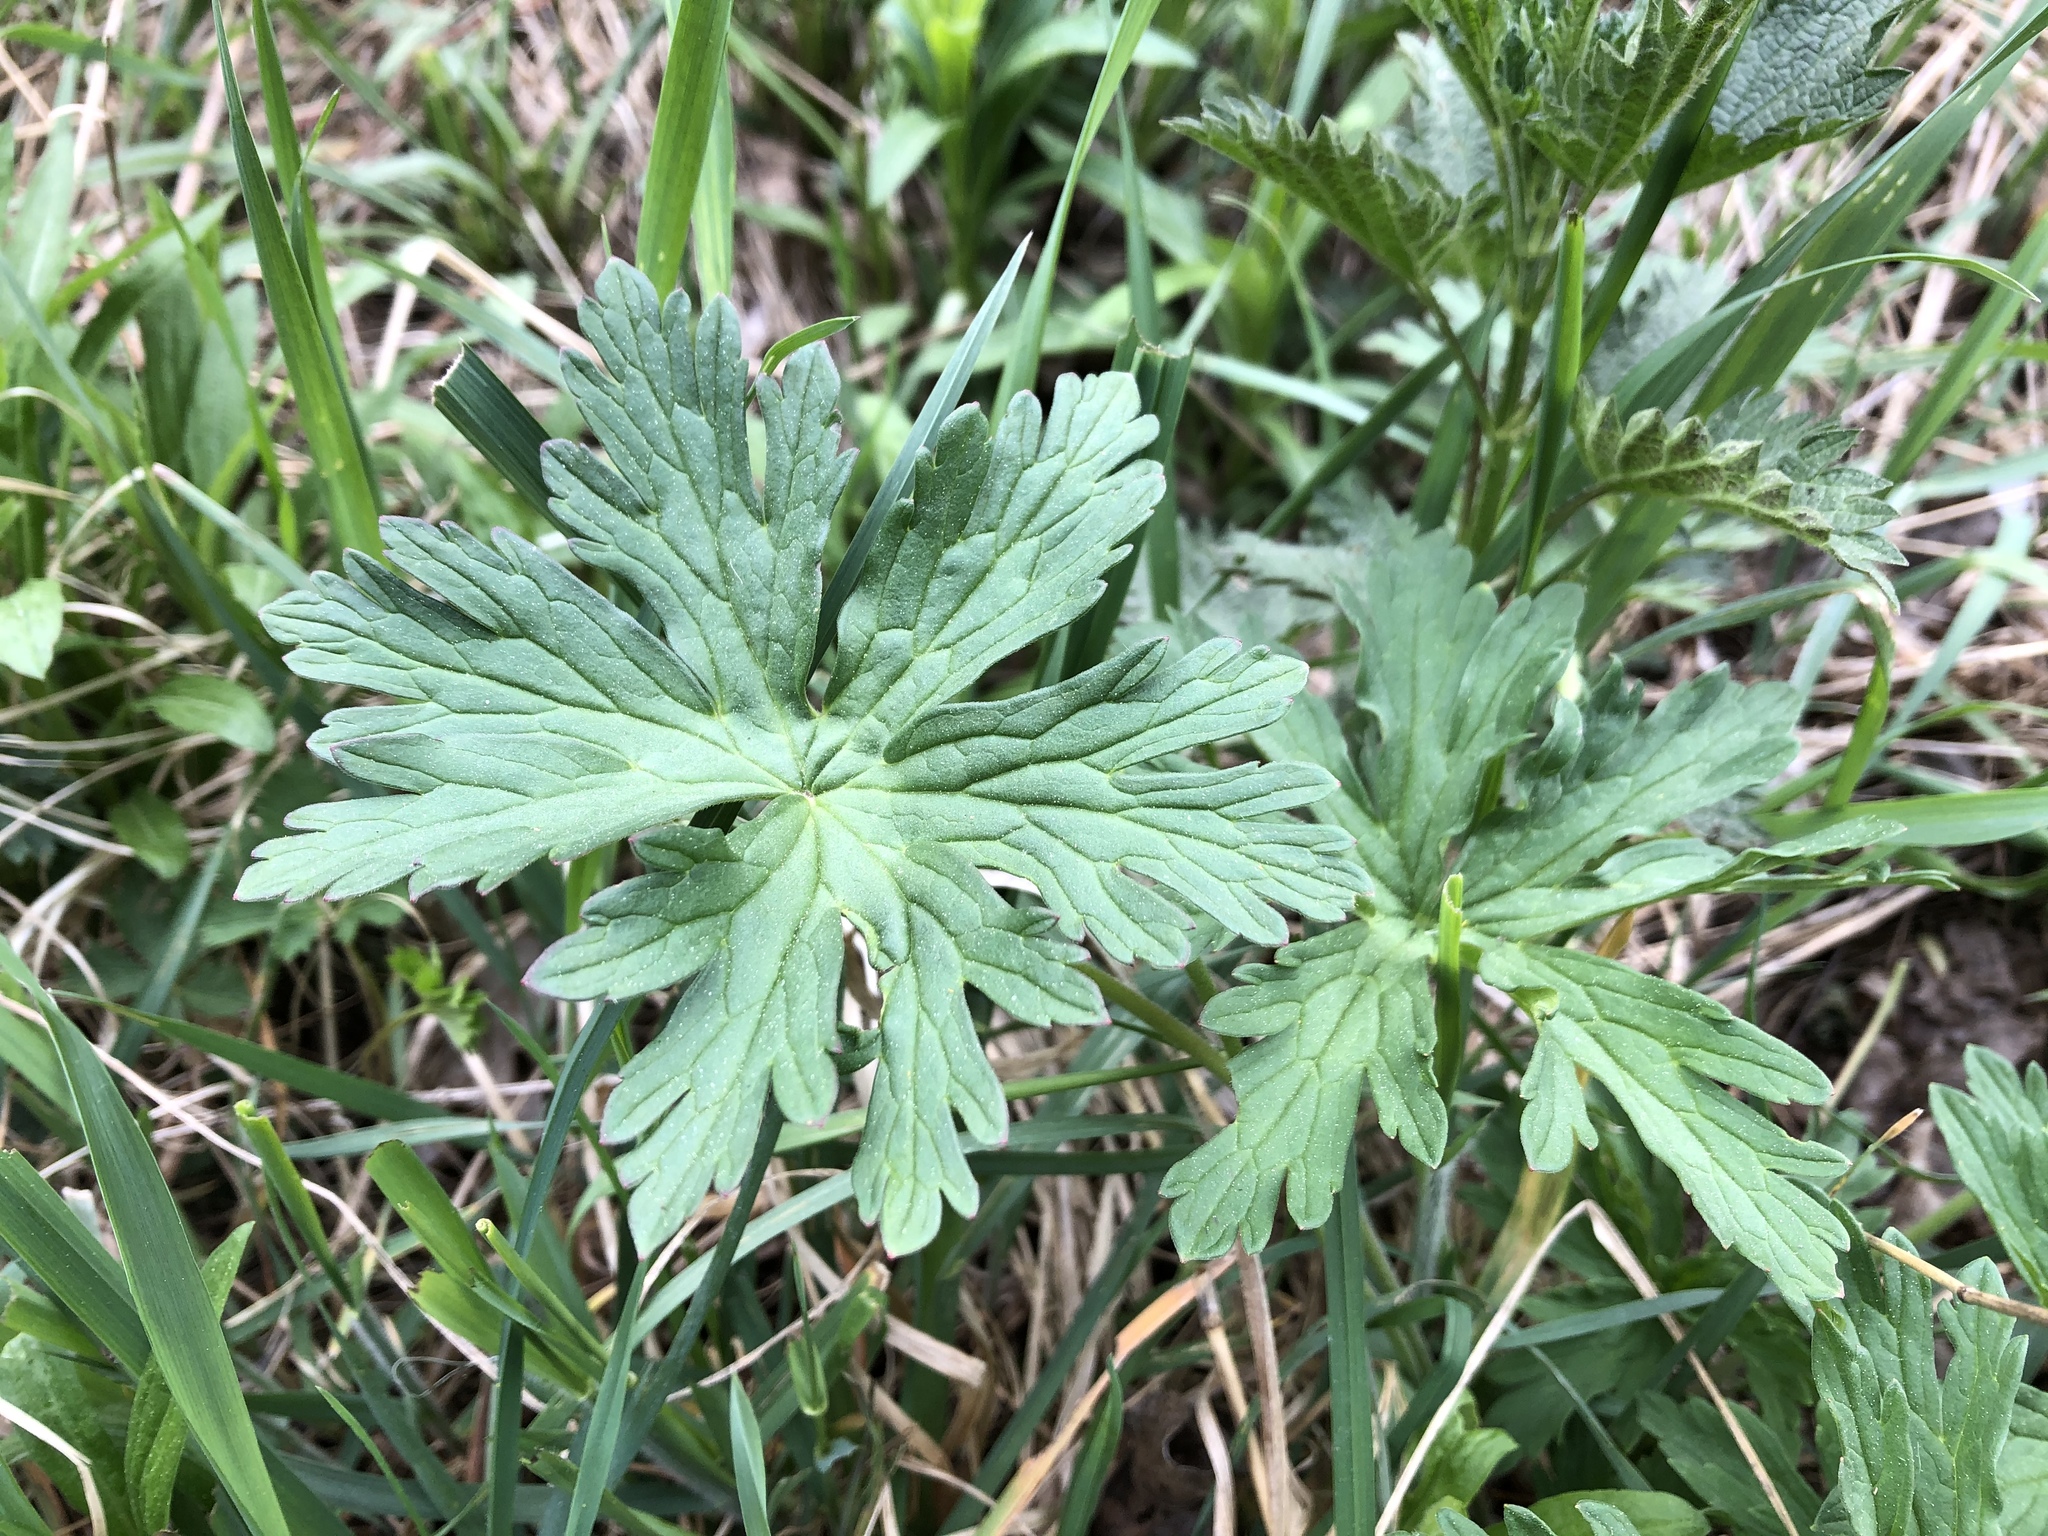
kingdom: Plantae
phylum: Tracheophyta
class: Magnoliopsida
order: Geraniales
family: Geraniaceae
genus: Geranium
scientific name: Geranium pratense
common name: Meadow crane's-bill
